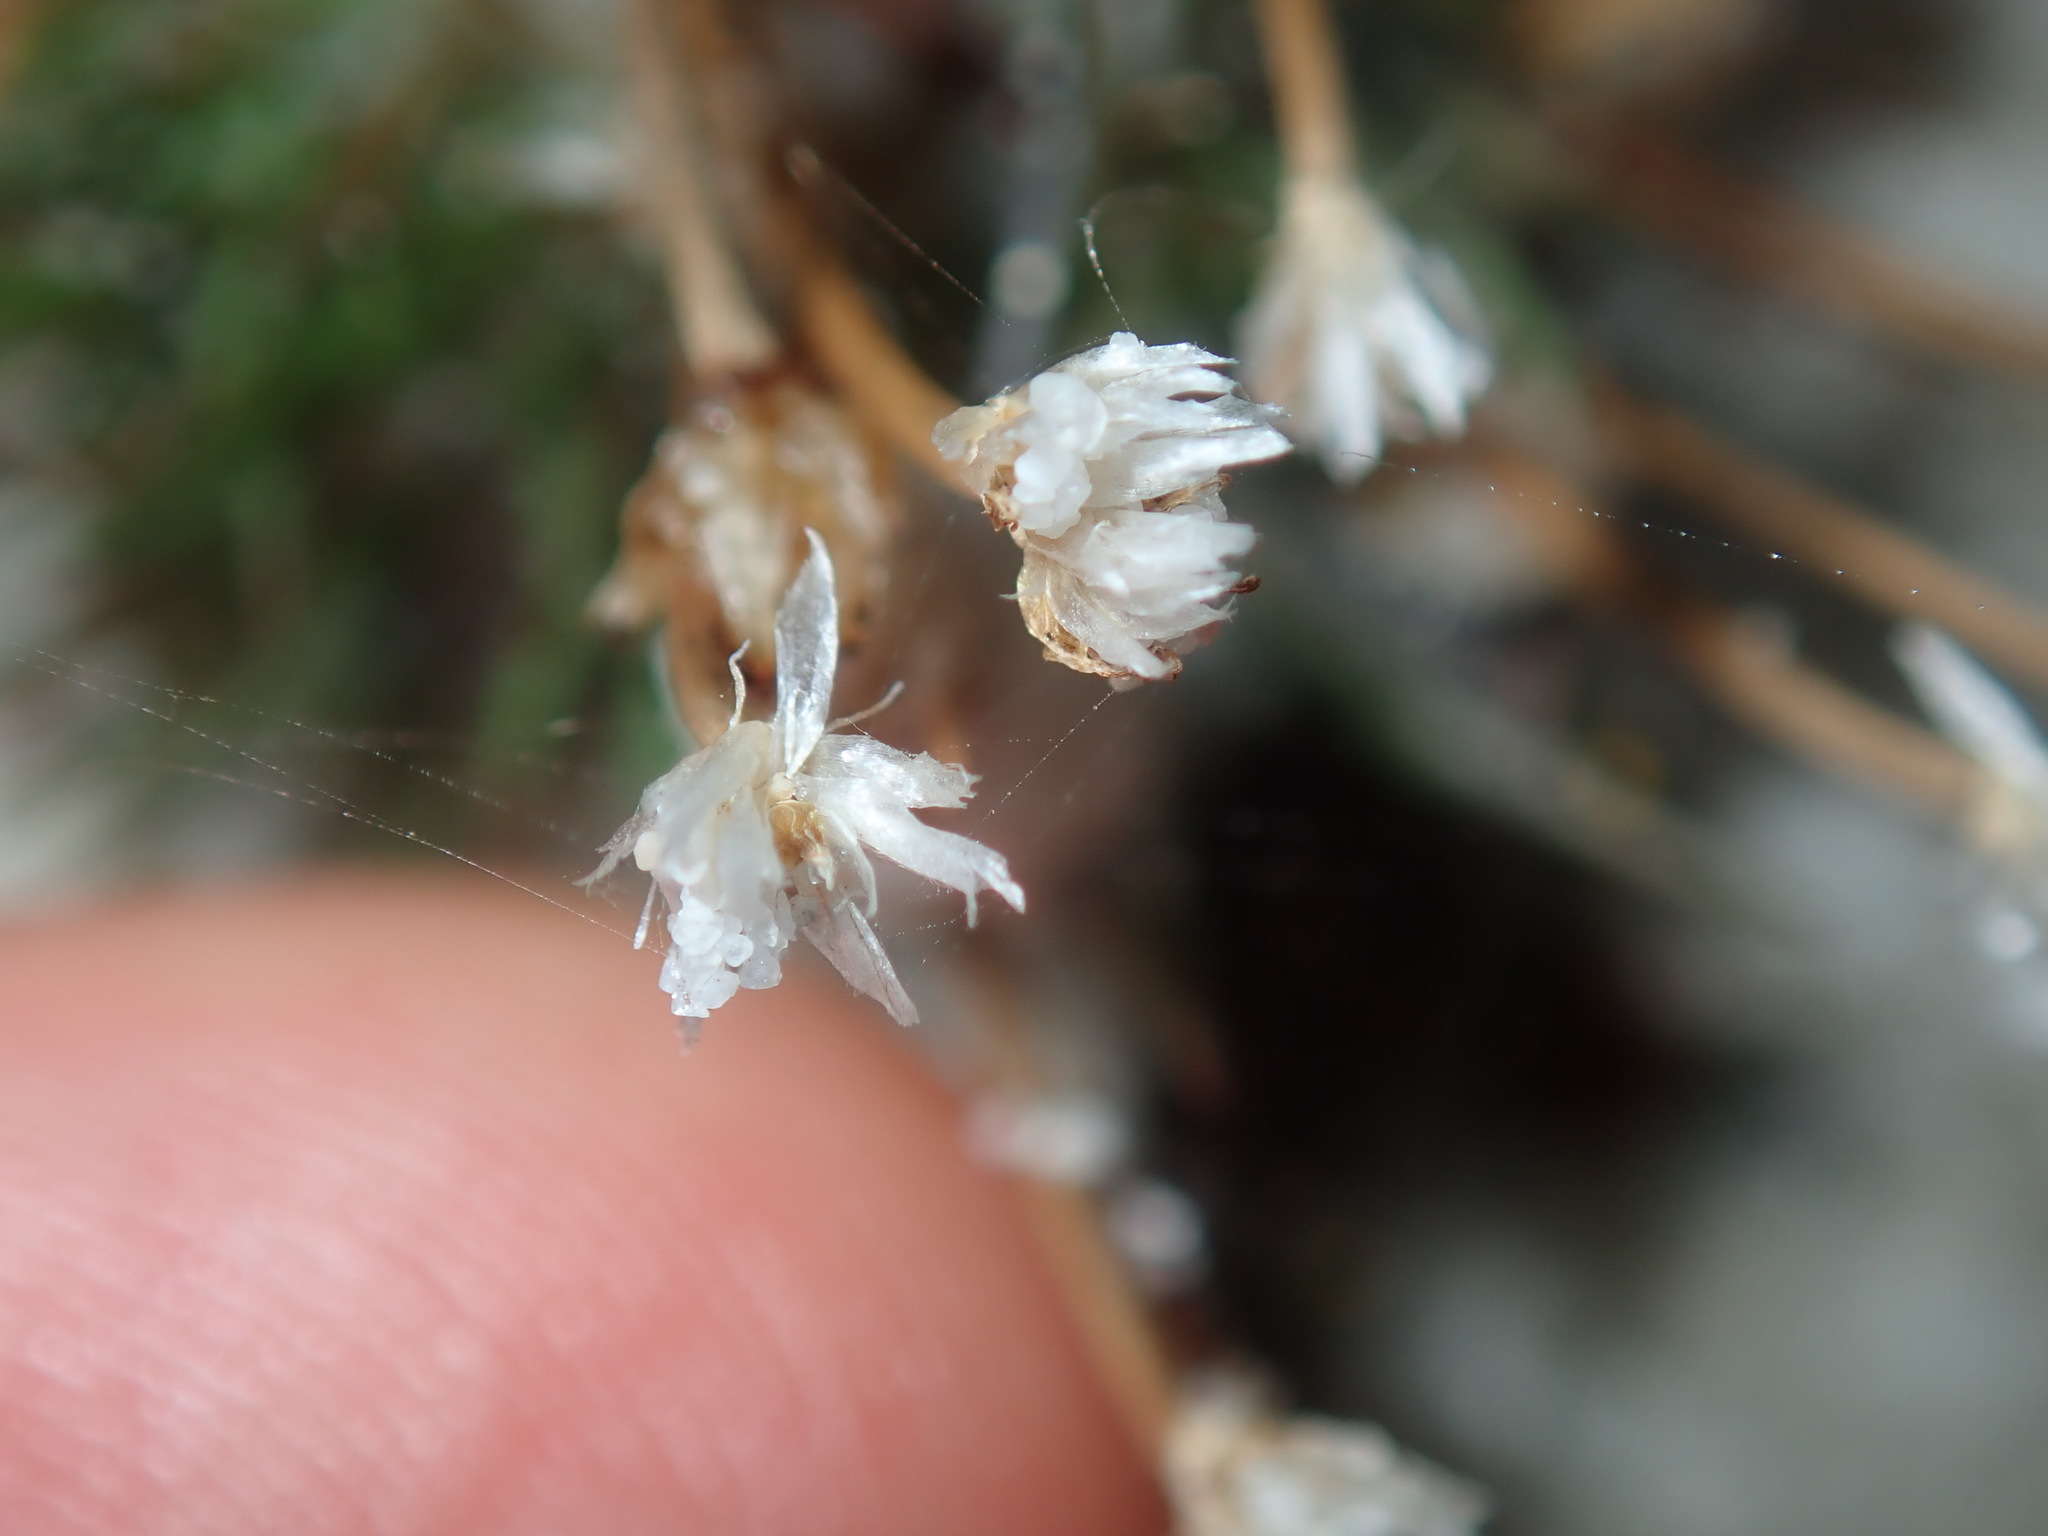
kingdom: Plantae
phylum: Tracheophyta
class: Liliopsida
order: Poales
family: Restionaceae
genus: Centrolepis
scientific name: Centrolepis strigosa
